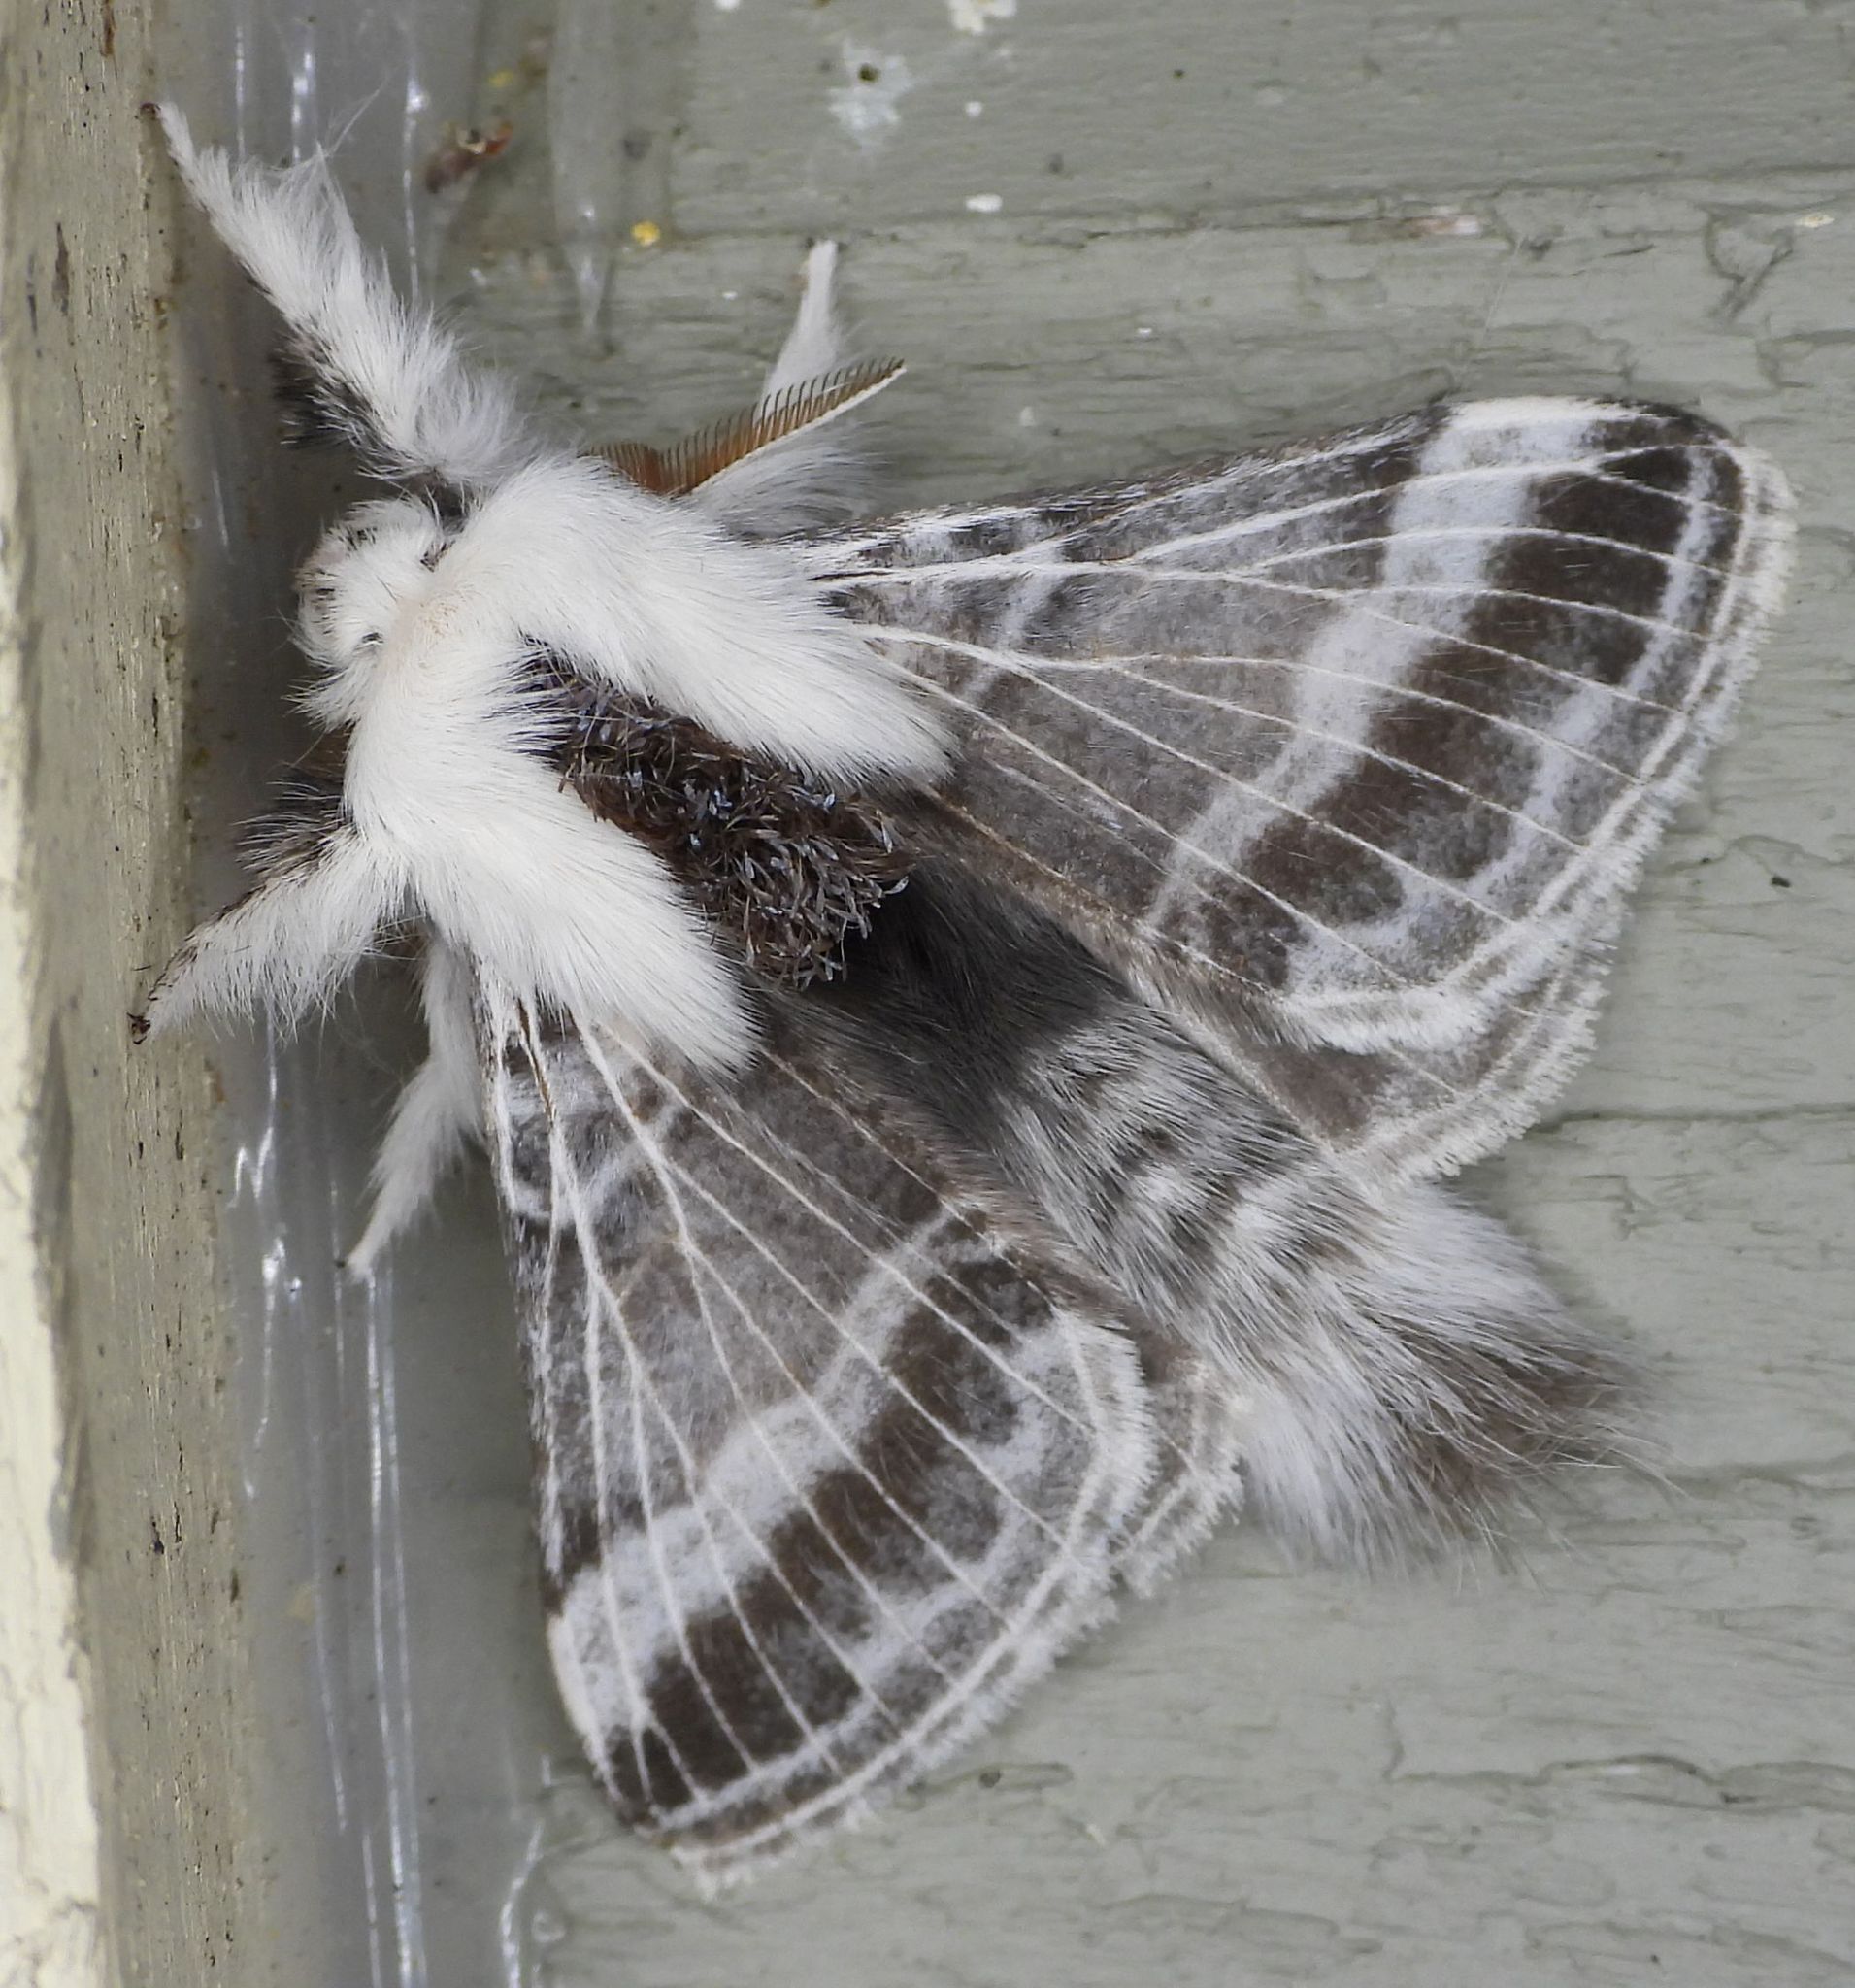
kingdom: Animalia
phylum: Arthropoda
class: Insecta
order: Lepidoptera
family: Lasiocampidae
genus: Tolype
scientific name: Tolype velleda
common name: Large tolype moth
